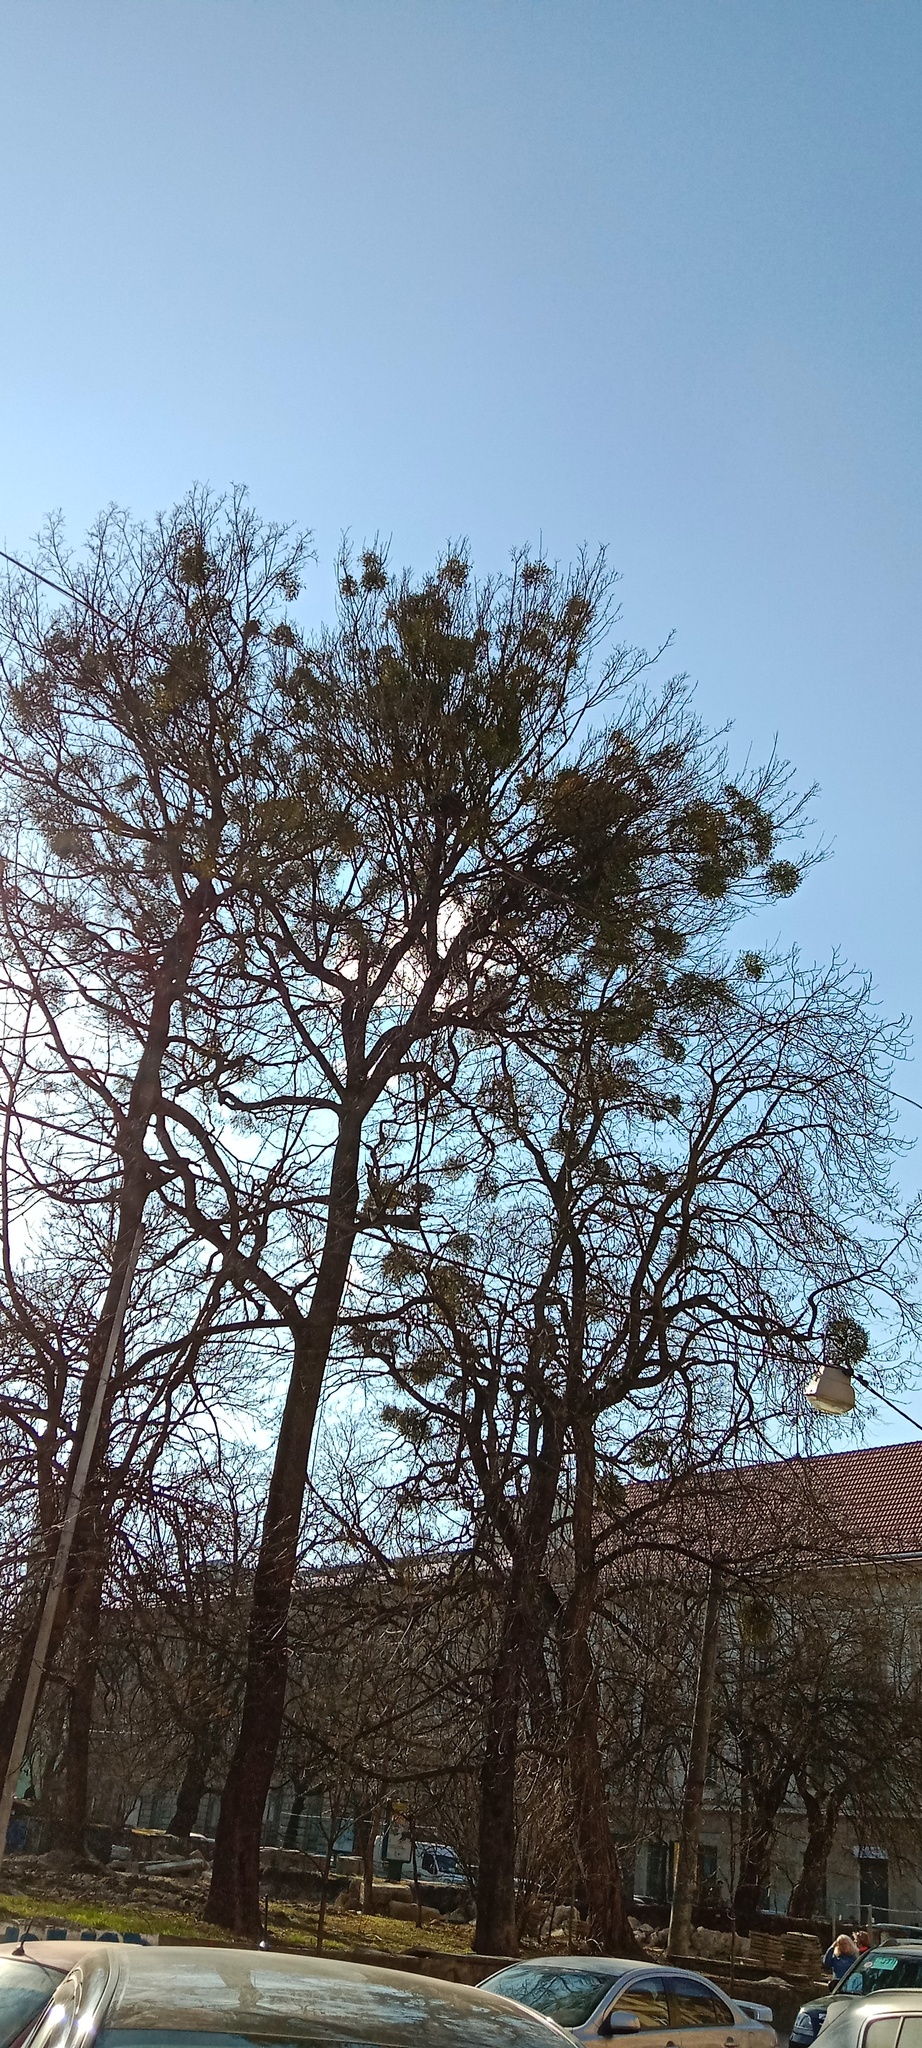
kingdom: Plantae
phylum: Tracheophyta
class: Magnoliopsida
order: Santalales
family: Viscaceae
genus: Viscum
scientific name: Viscum album
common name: Mistletoe
